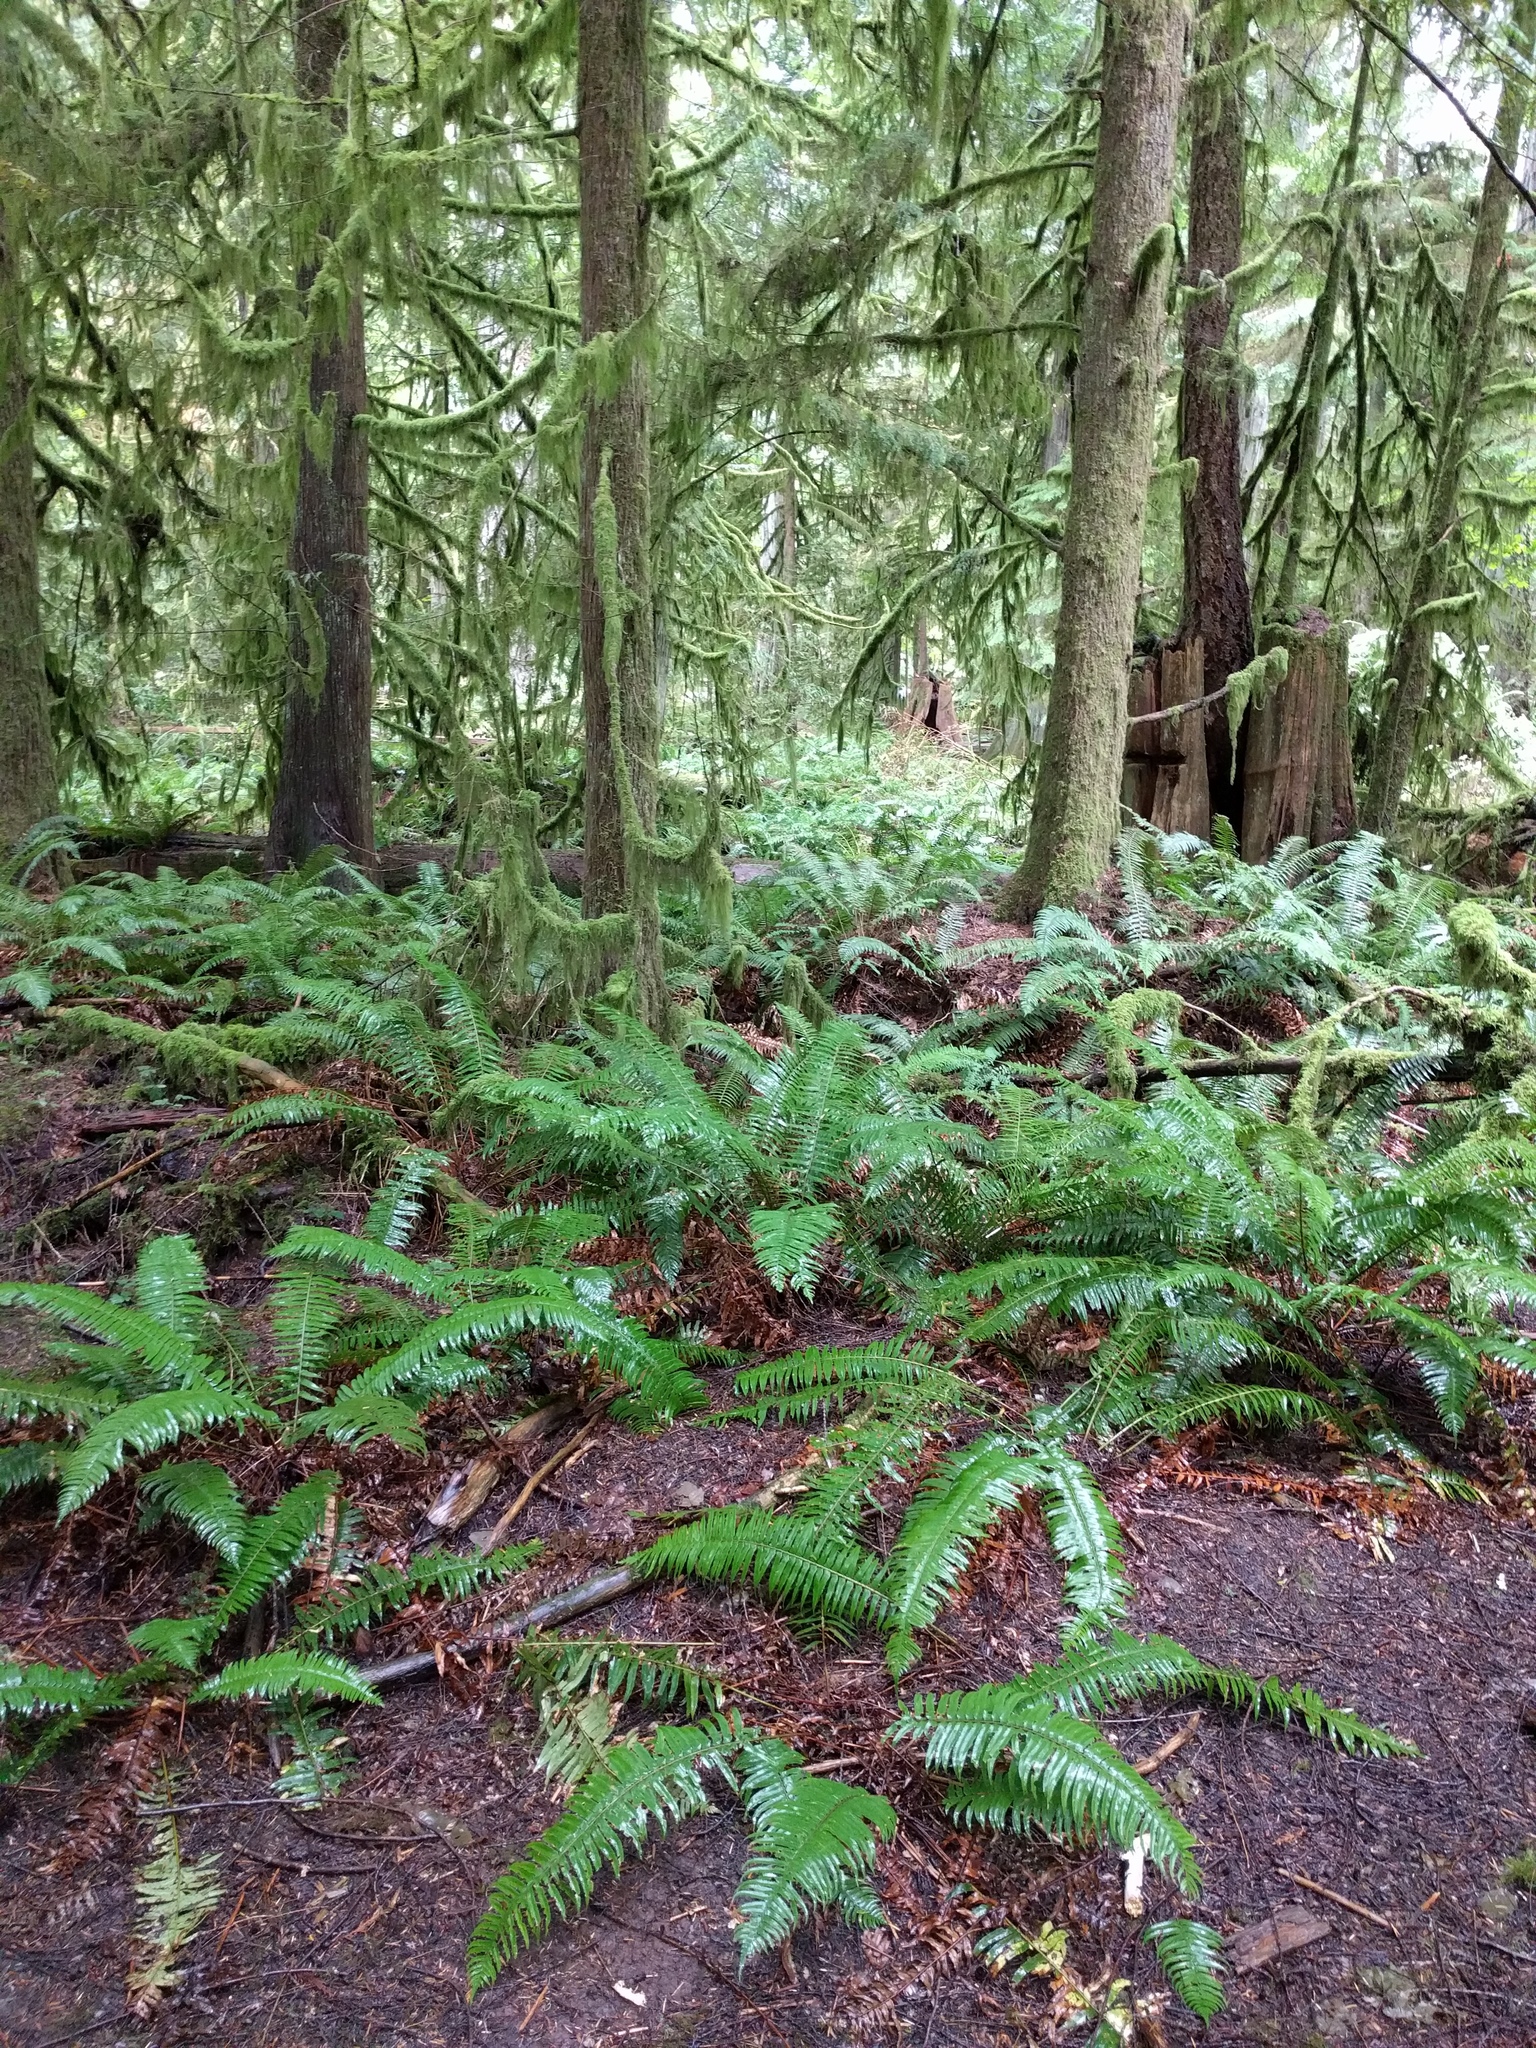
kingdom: Plantae
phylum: Tracheophyta
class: Polypodiopsida
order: Polypodiales
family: Dryopteridaceae
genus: Polystichum
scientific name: Polystichum munitum
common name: Western sword-fern
